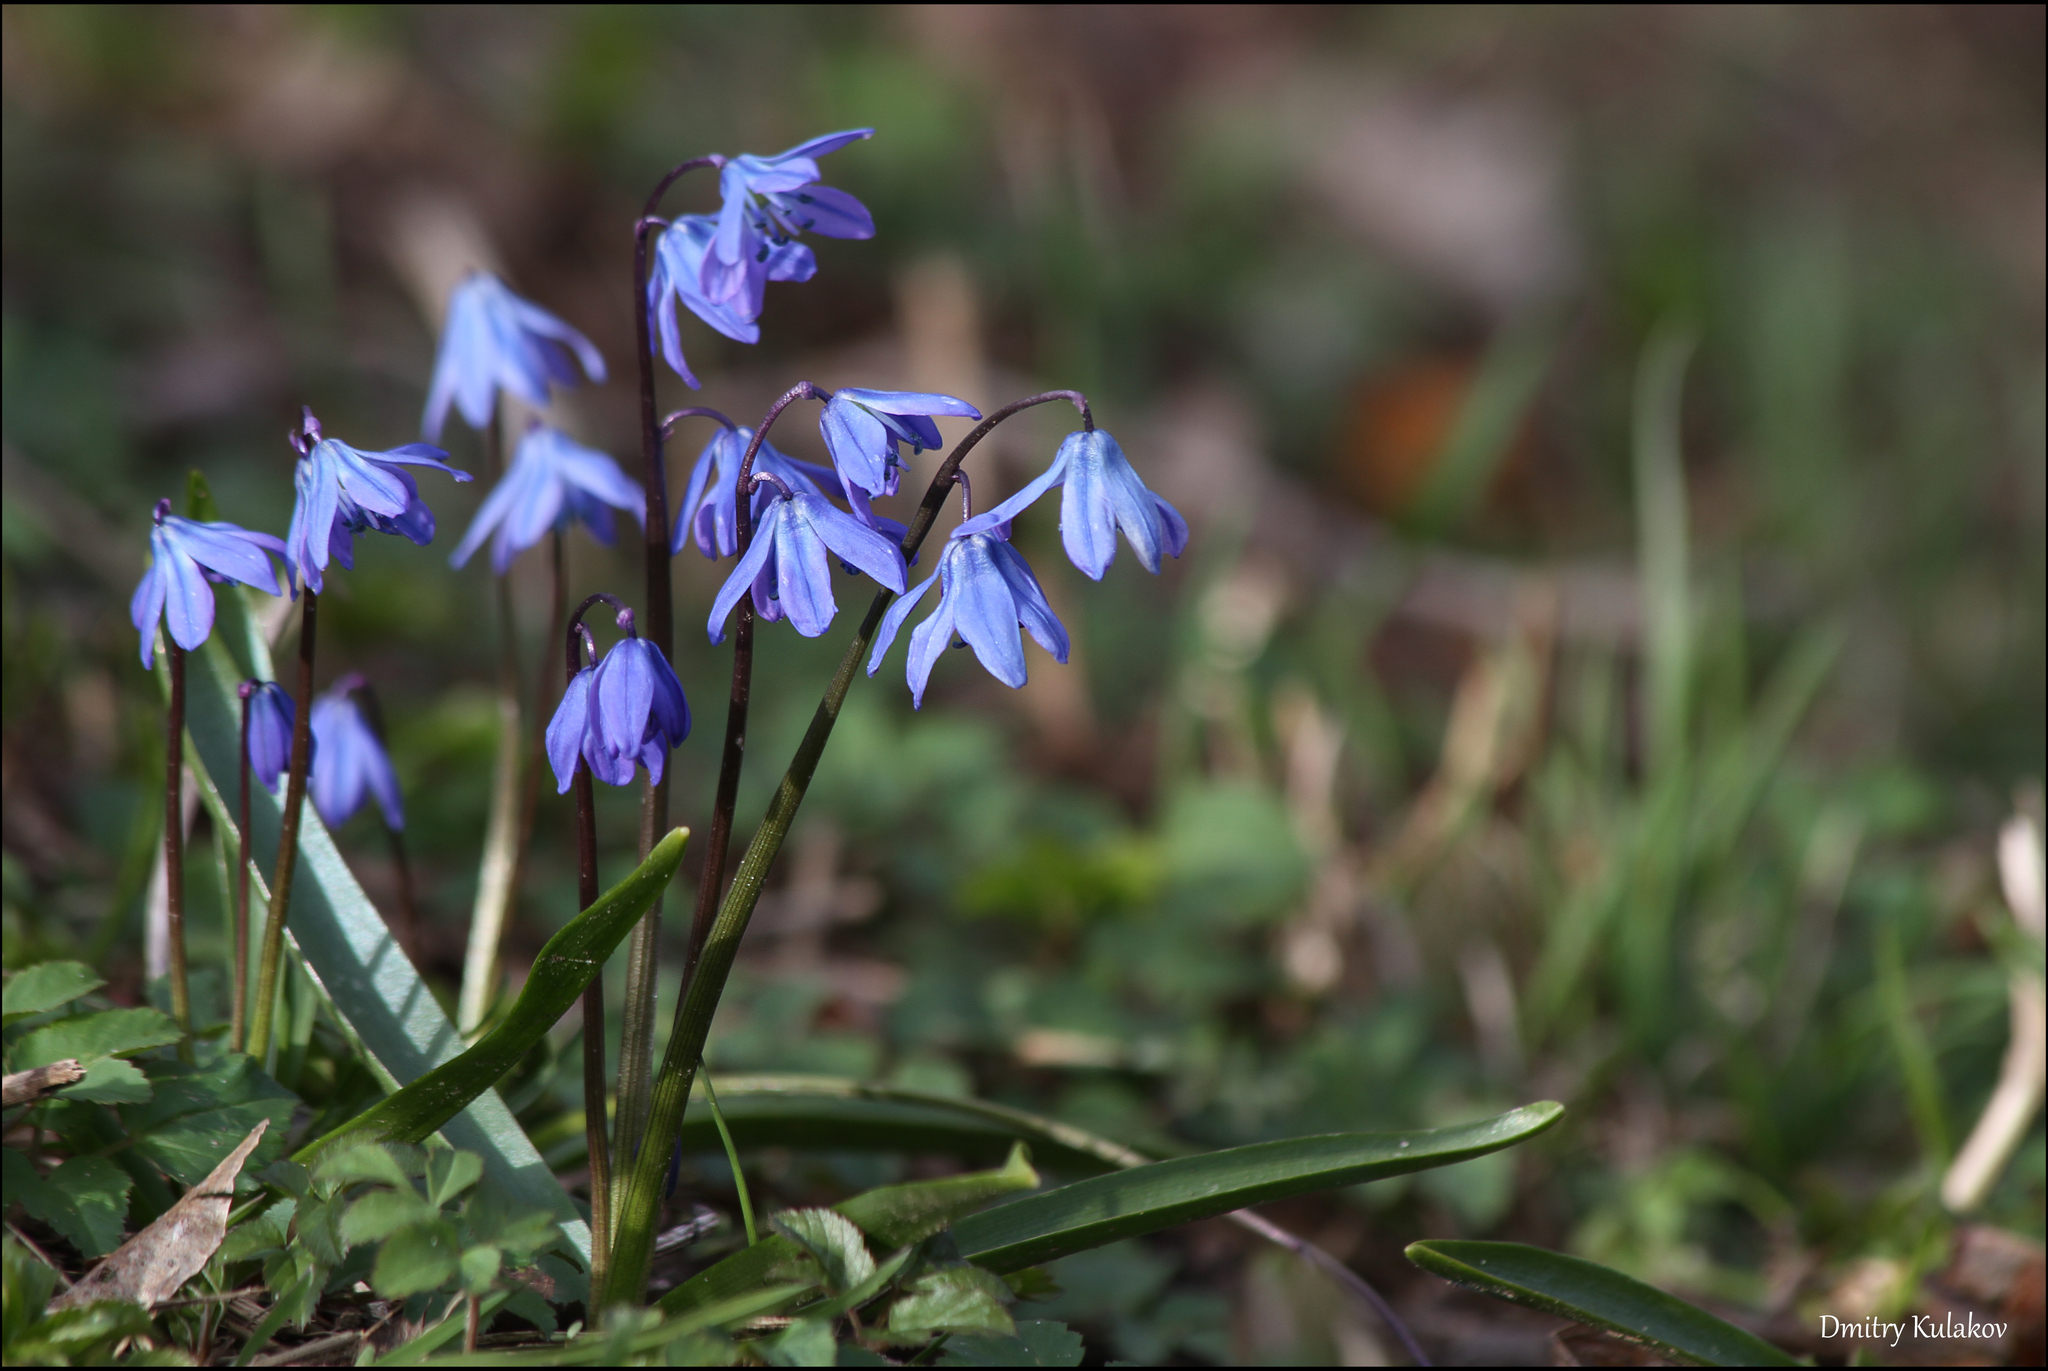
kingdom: Plantae
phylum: Tracheophyta
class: Liliopsida
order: Asparagales
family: Asparagaceae
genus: Scilla
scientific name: Scilla siberica
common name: Siberian squill
